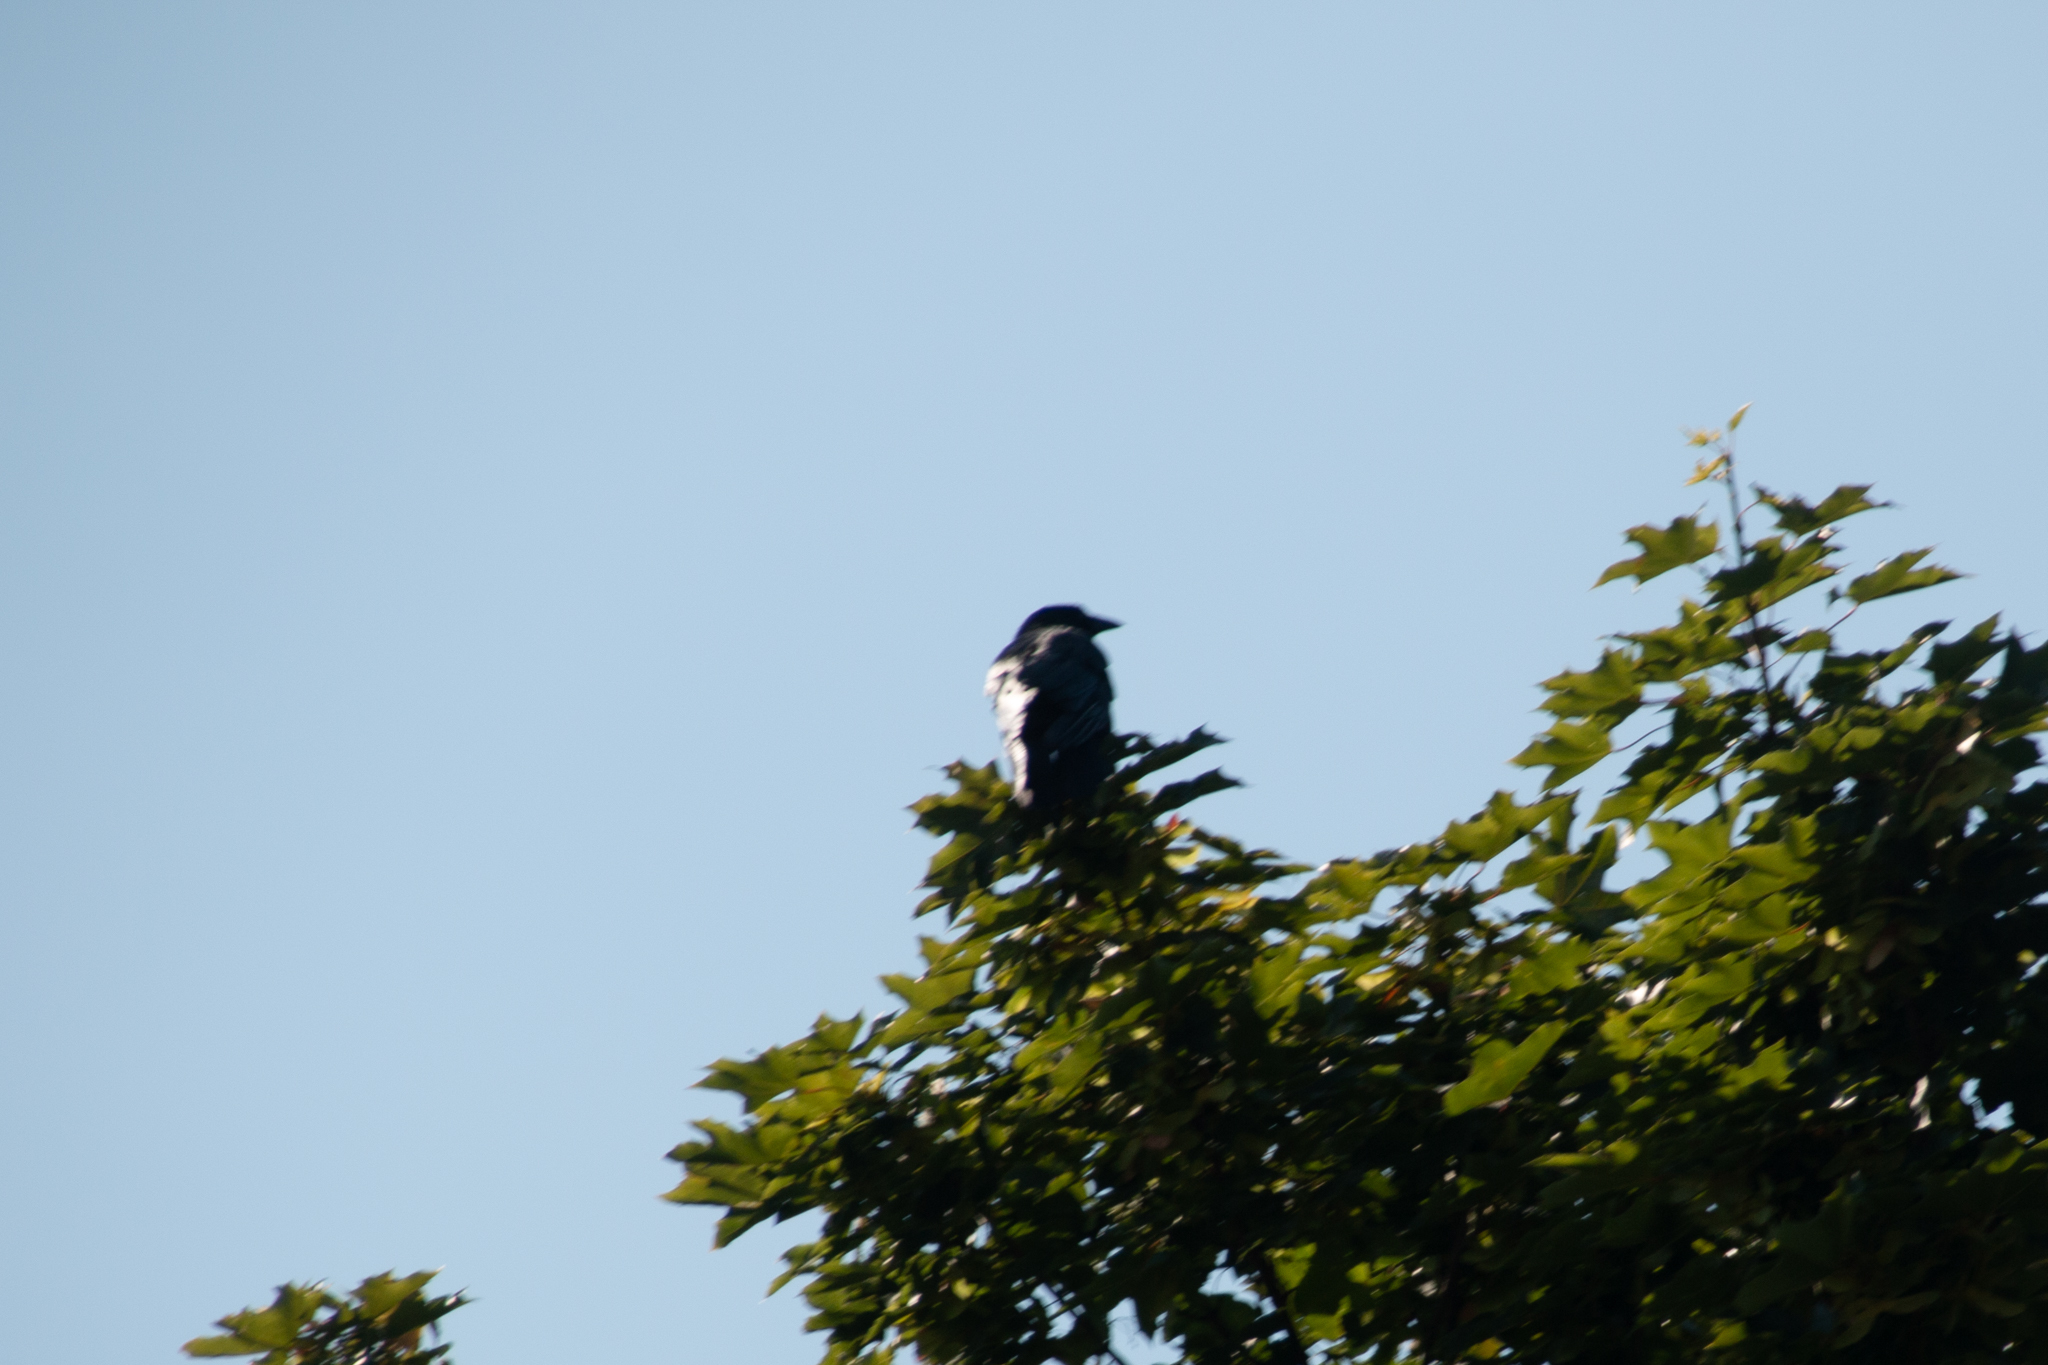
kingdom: Animalia
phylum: Chordata
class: Aves
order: Passeriformes
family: Corvidae
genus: Corvus
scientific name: Corvus corax
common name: Common raven
